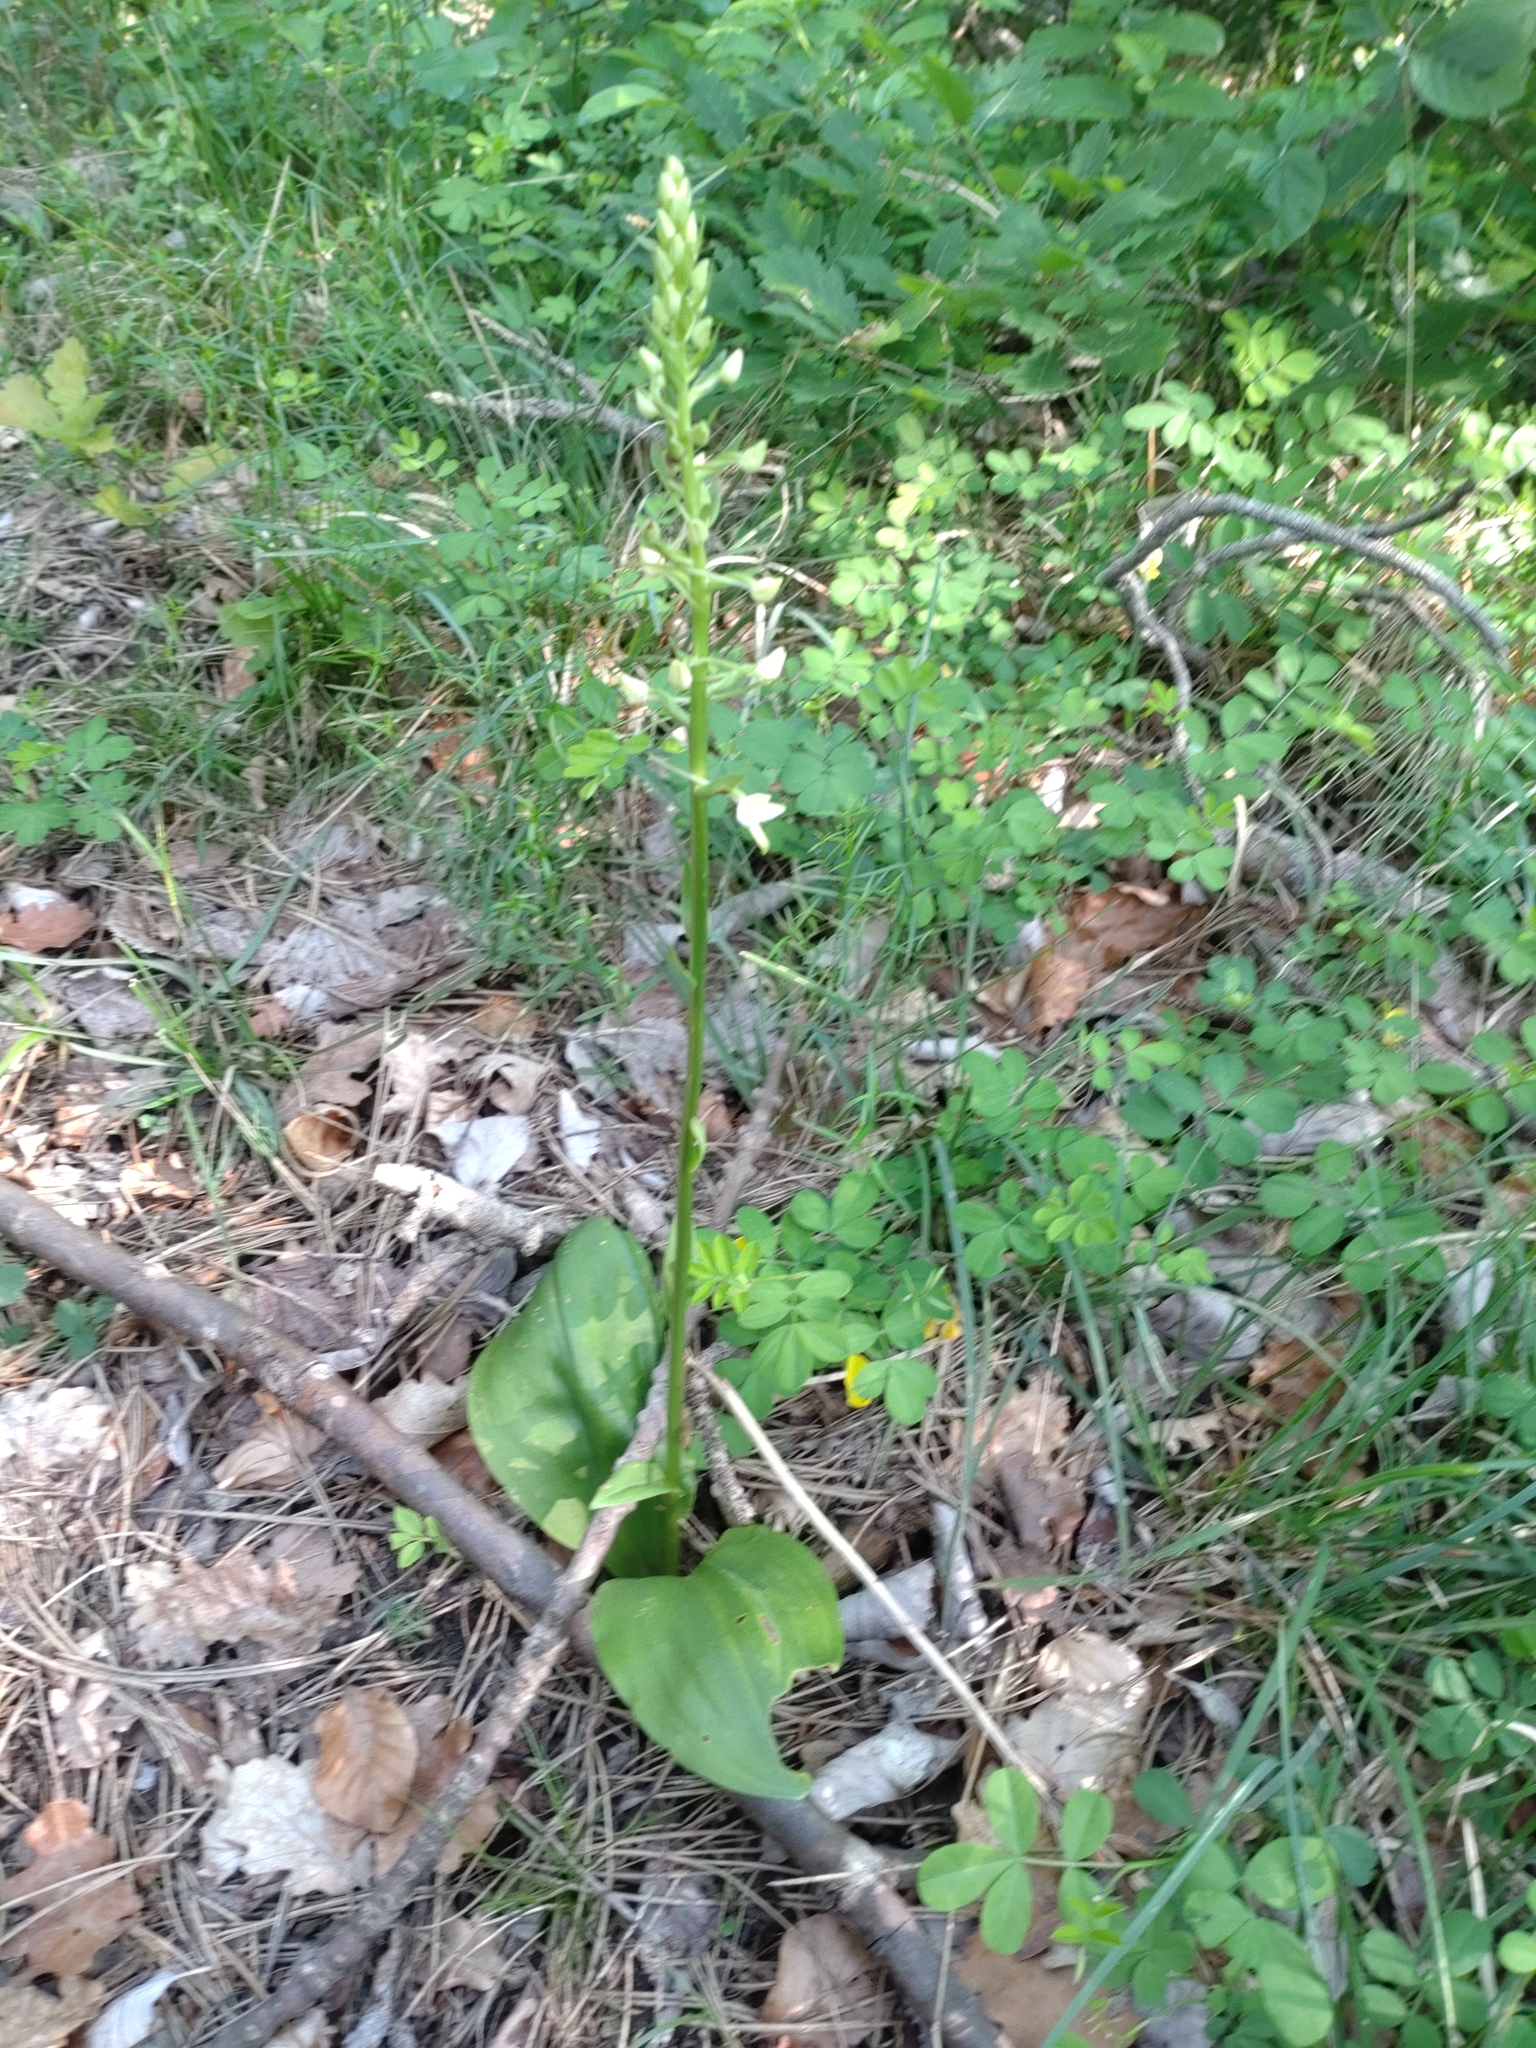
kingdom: Plantae
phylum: Tracheophyta
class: Liliopsida
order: Asparagales
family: Orchidaceae
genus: Platanthera
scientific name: Platanthera bifolia
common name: Lesser butterfly-orchid
